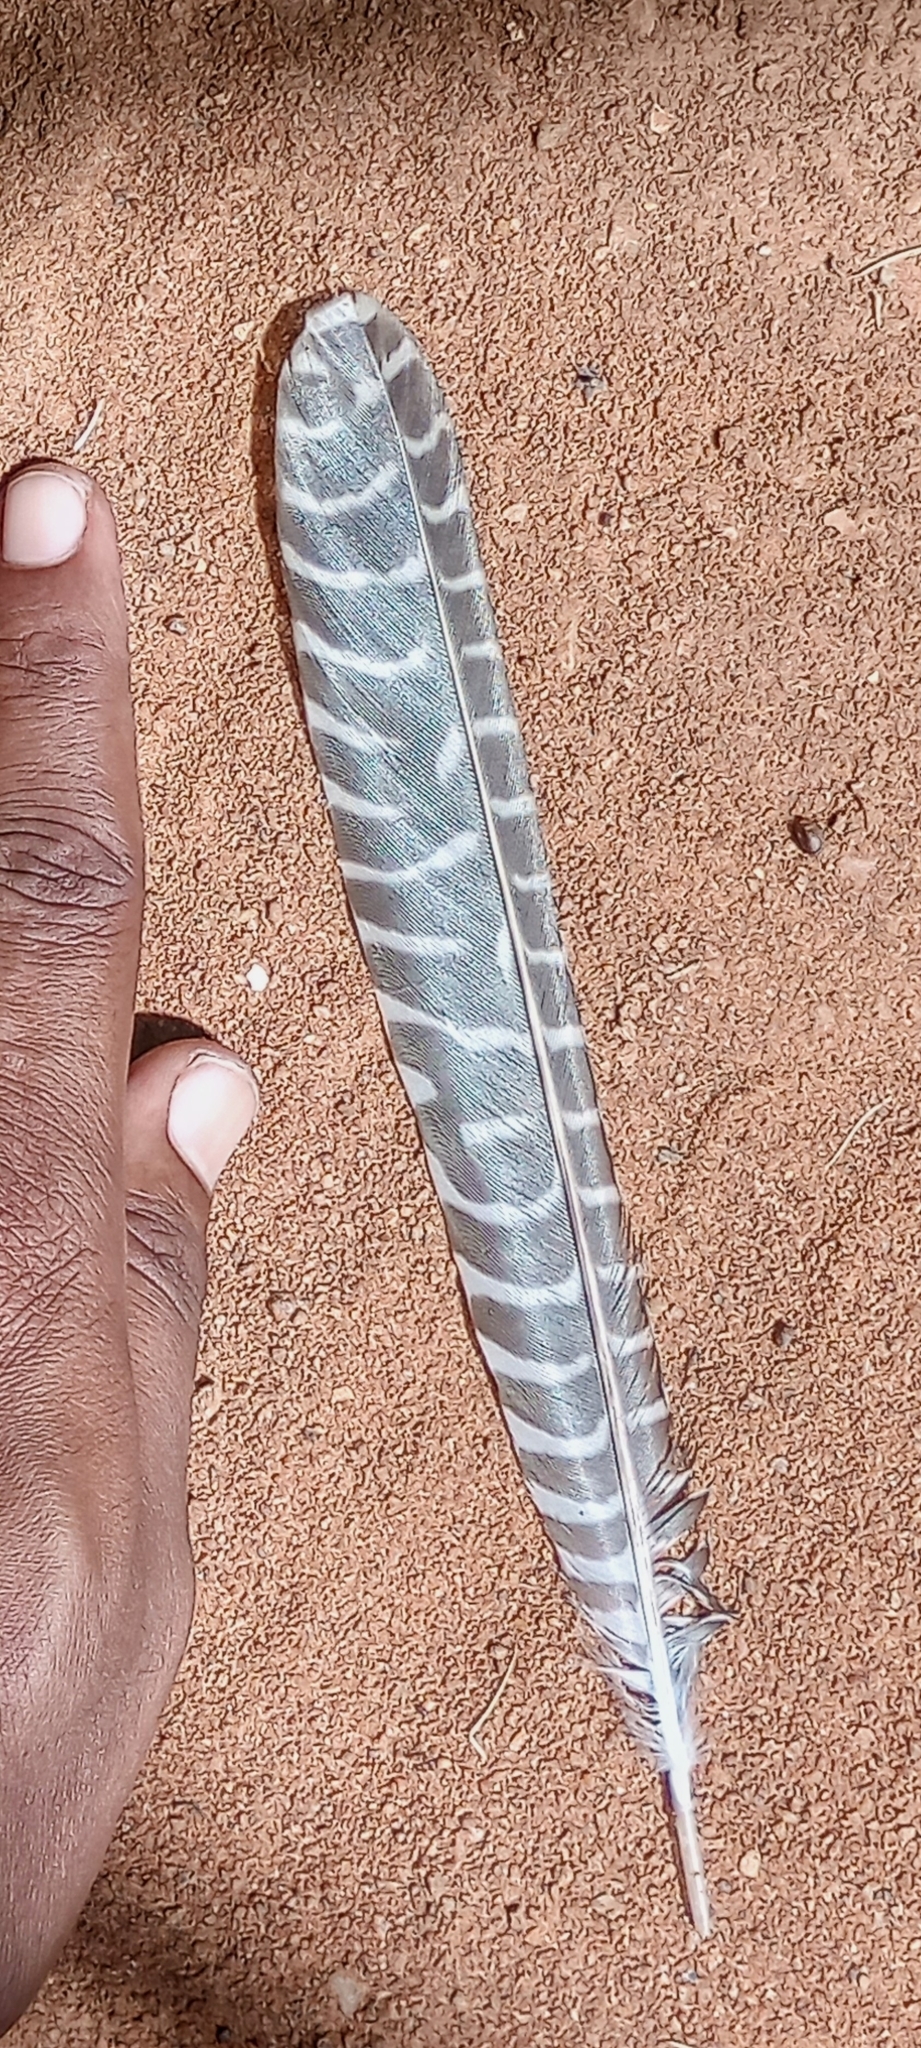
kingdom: Animalia
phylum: Chordata
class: Aves
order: Cuculiformes
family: Cuculidae
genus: Eudynamys
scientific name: Eudynamys scolopaceus
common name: Asian koel
